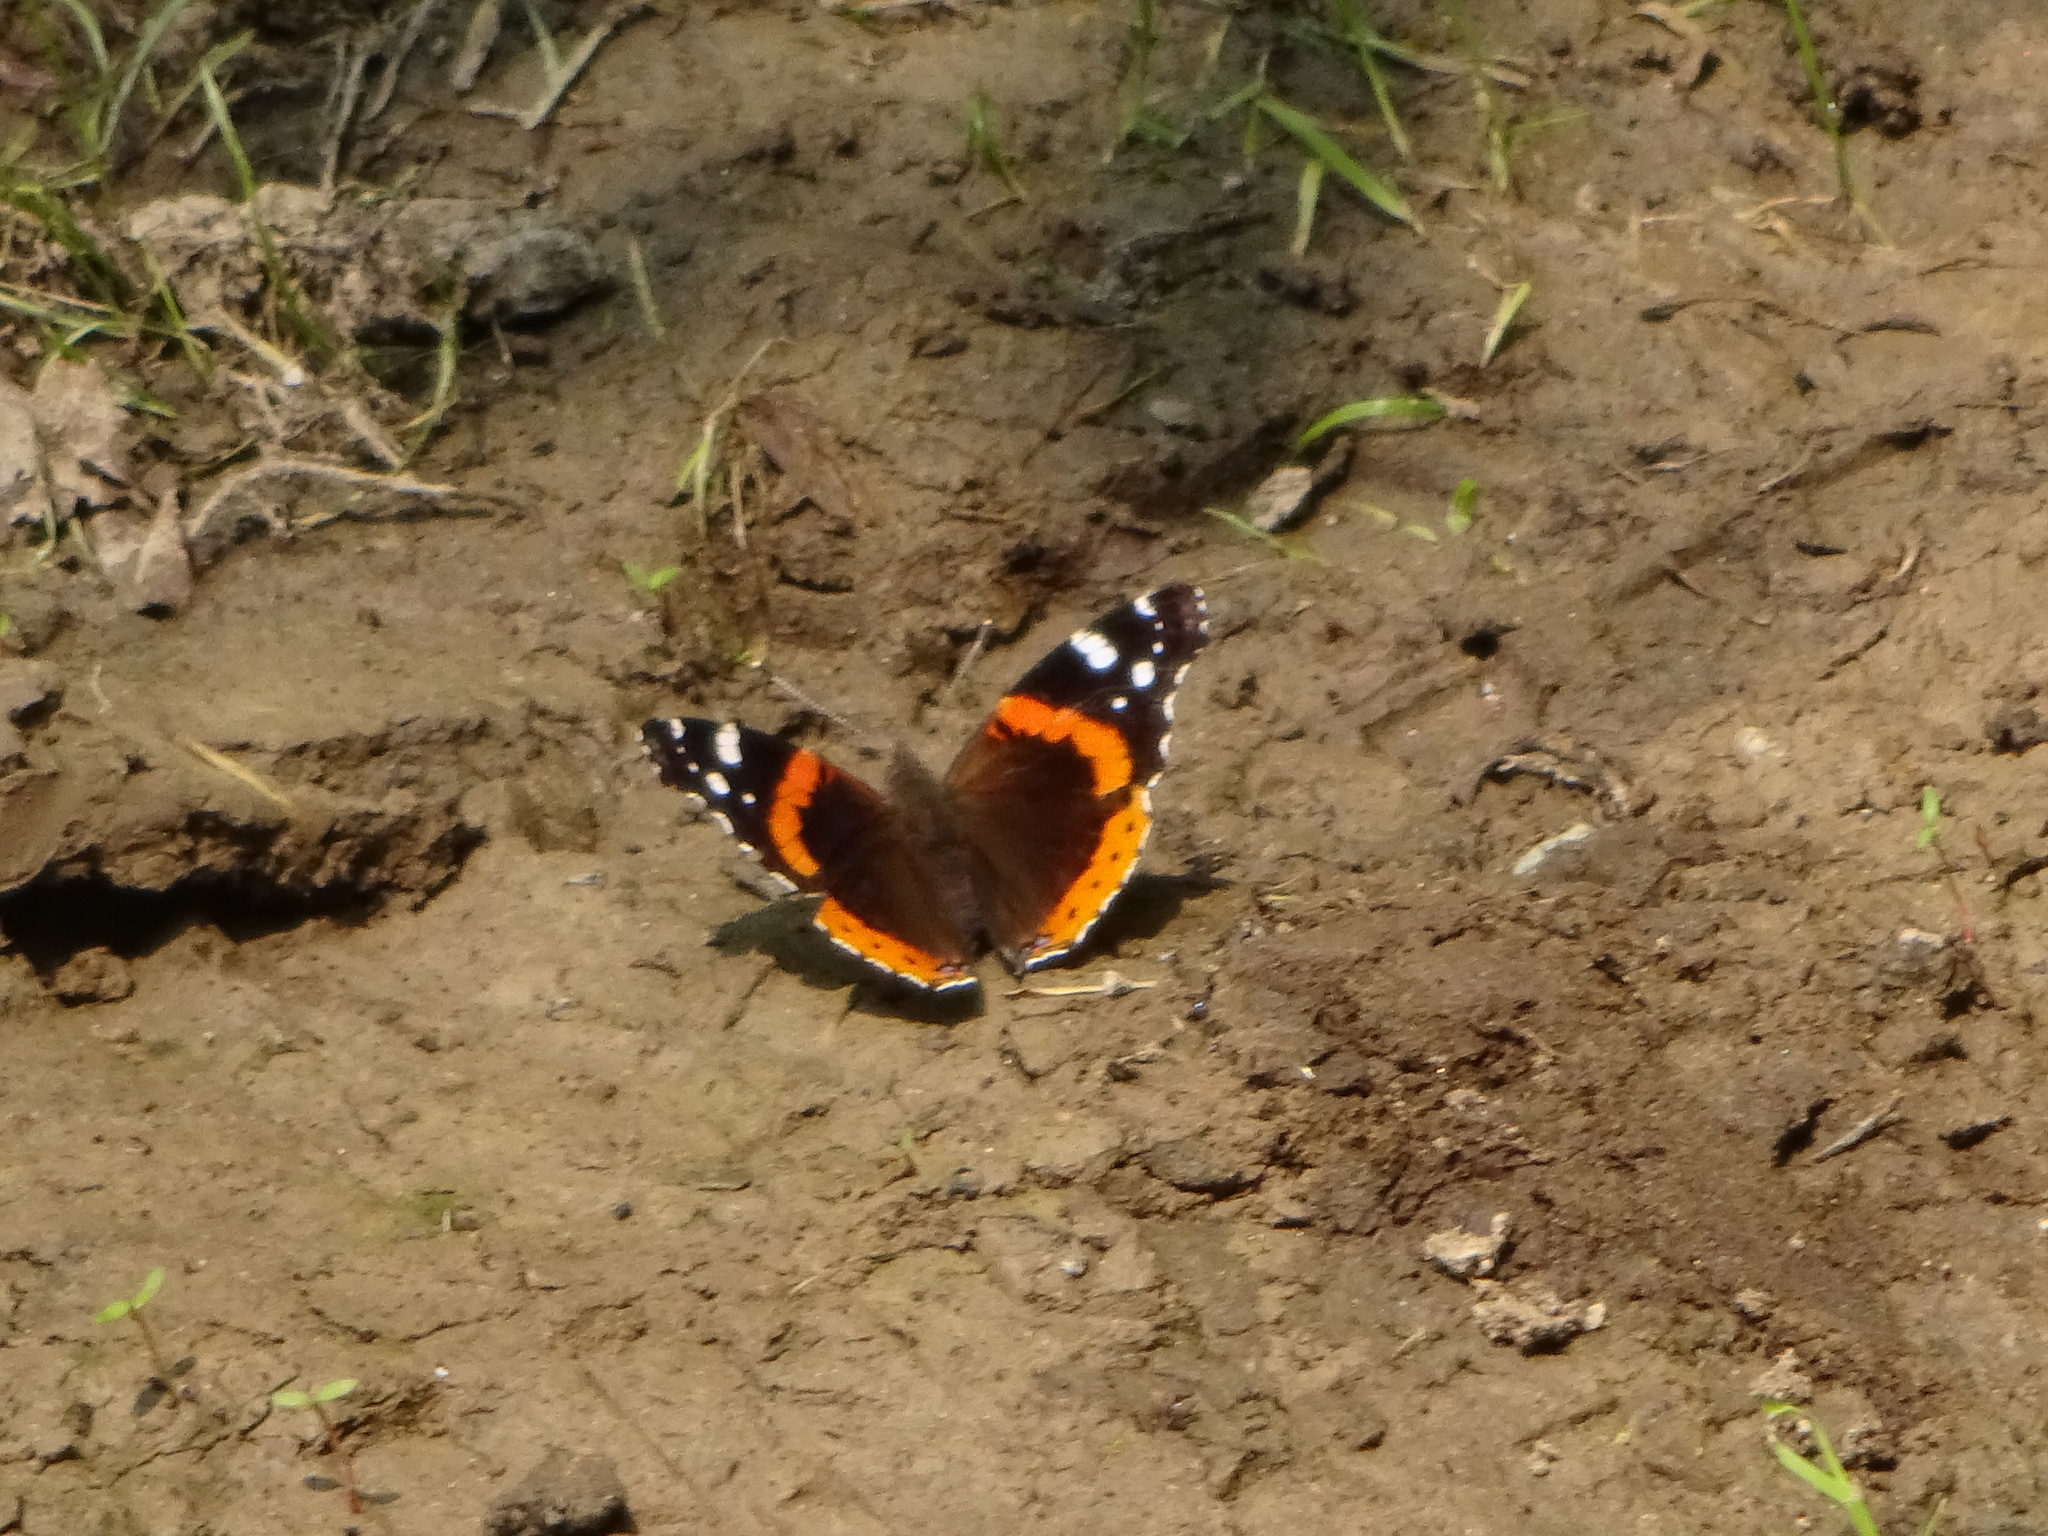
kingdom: Animalia
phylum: Arthropoda
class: Insecta
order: Lepidoptera
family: Nymphalidae
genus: Vanessa
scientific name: Vanessa atalanta
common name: Red admiral
